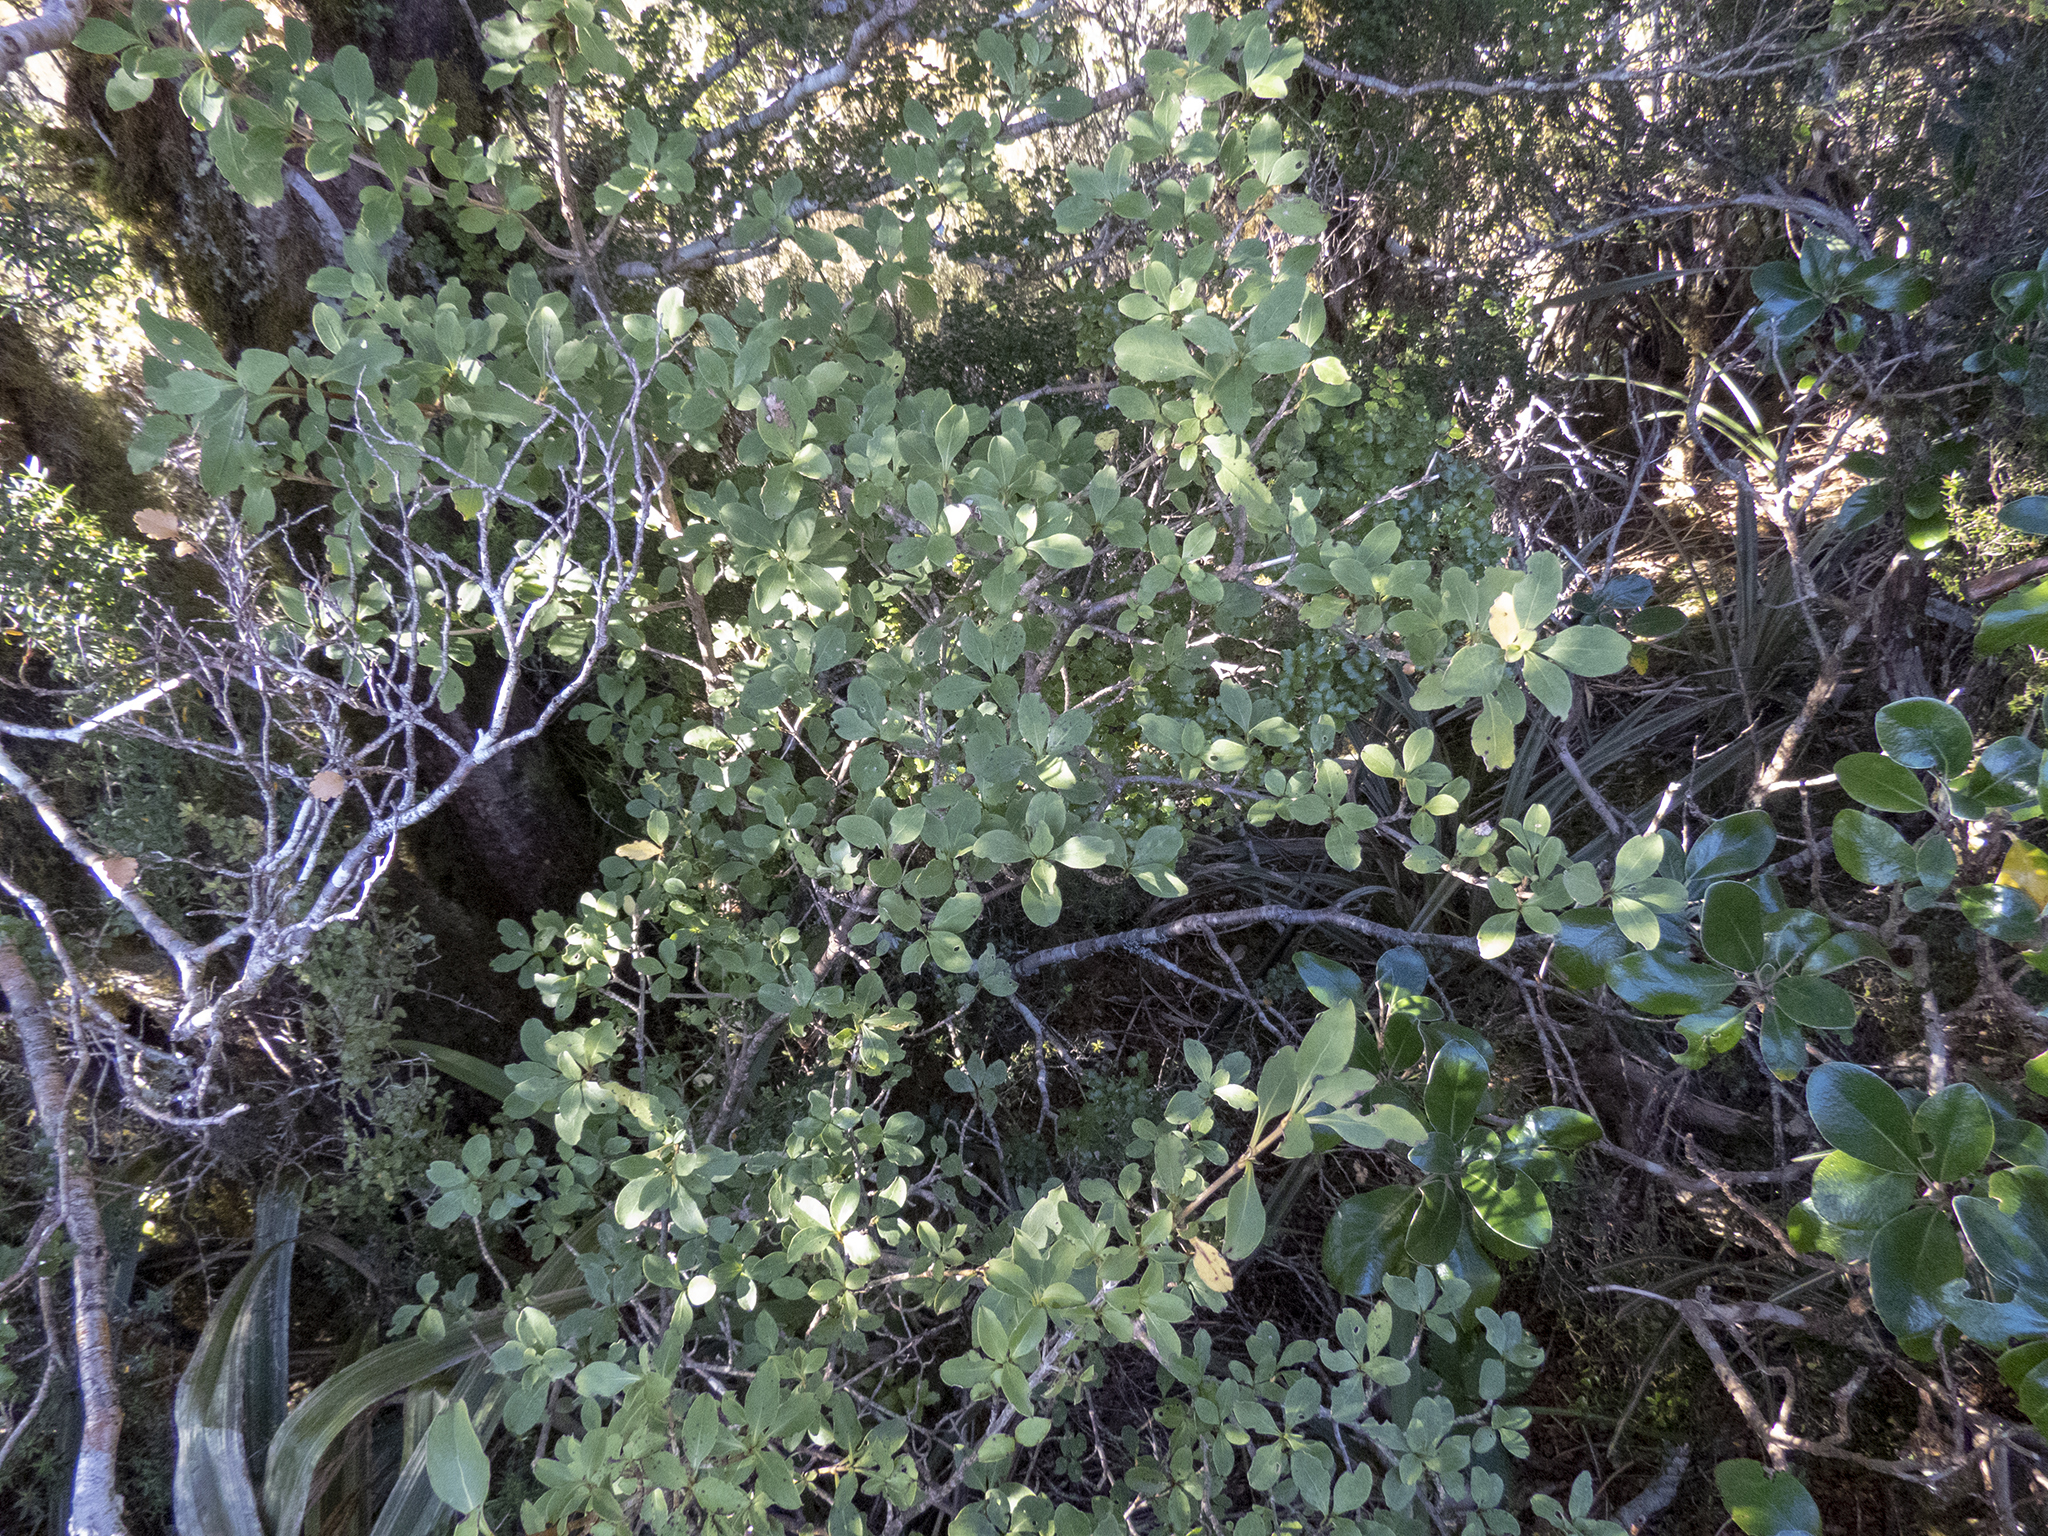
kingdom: Plantae
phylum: Tracheophyta
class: Magnoliopsida
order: Gentianales
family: Rubiaceae
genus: Coprosma
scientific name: Coprosma foetidissima
